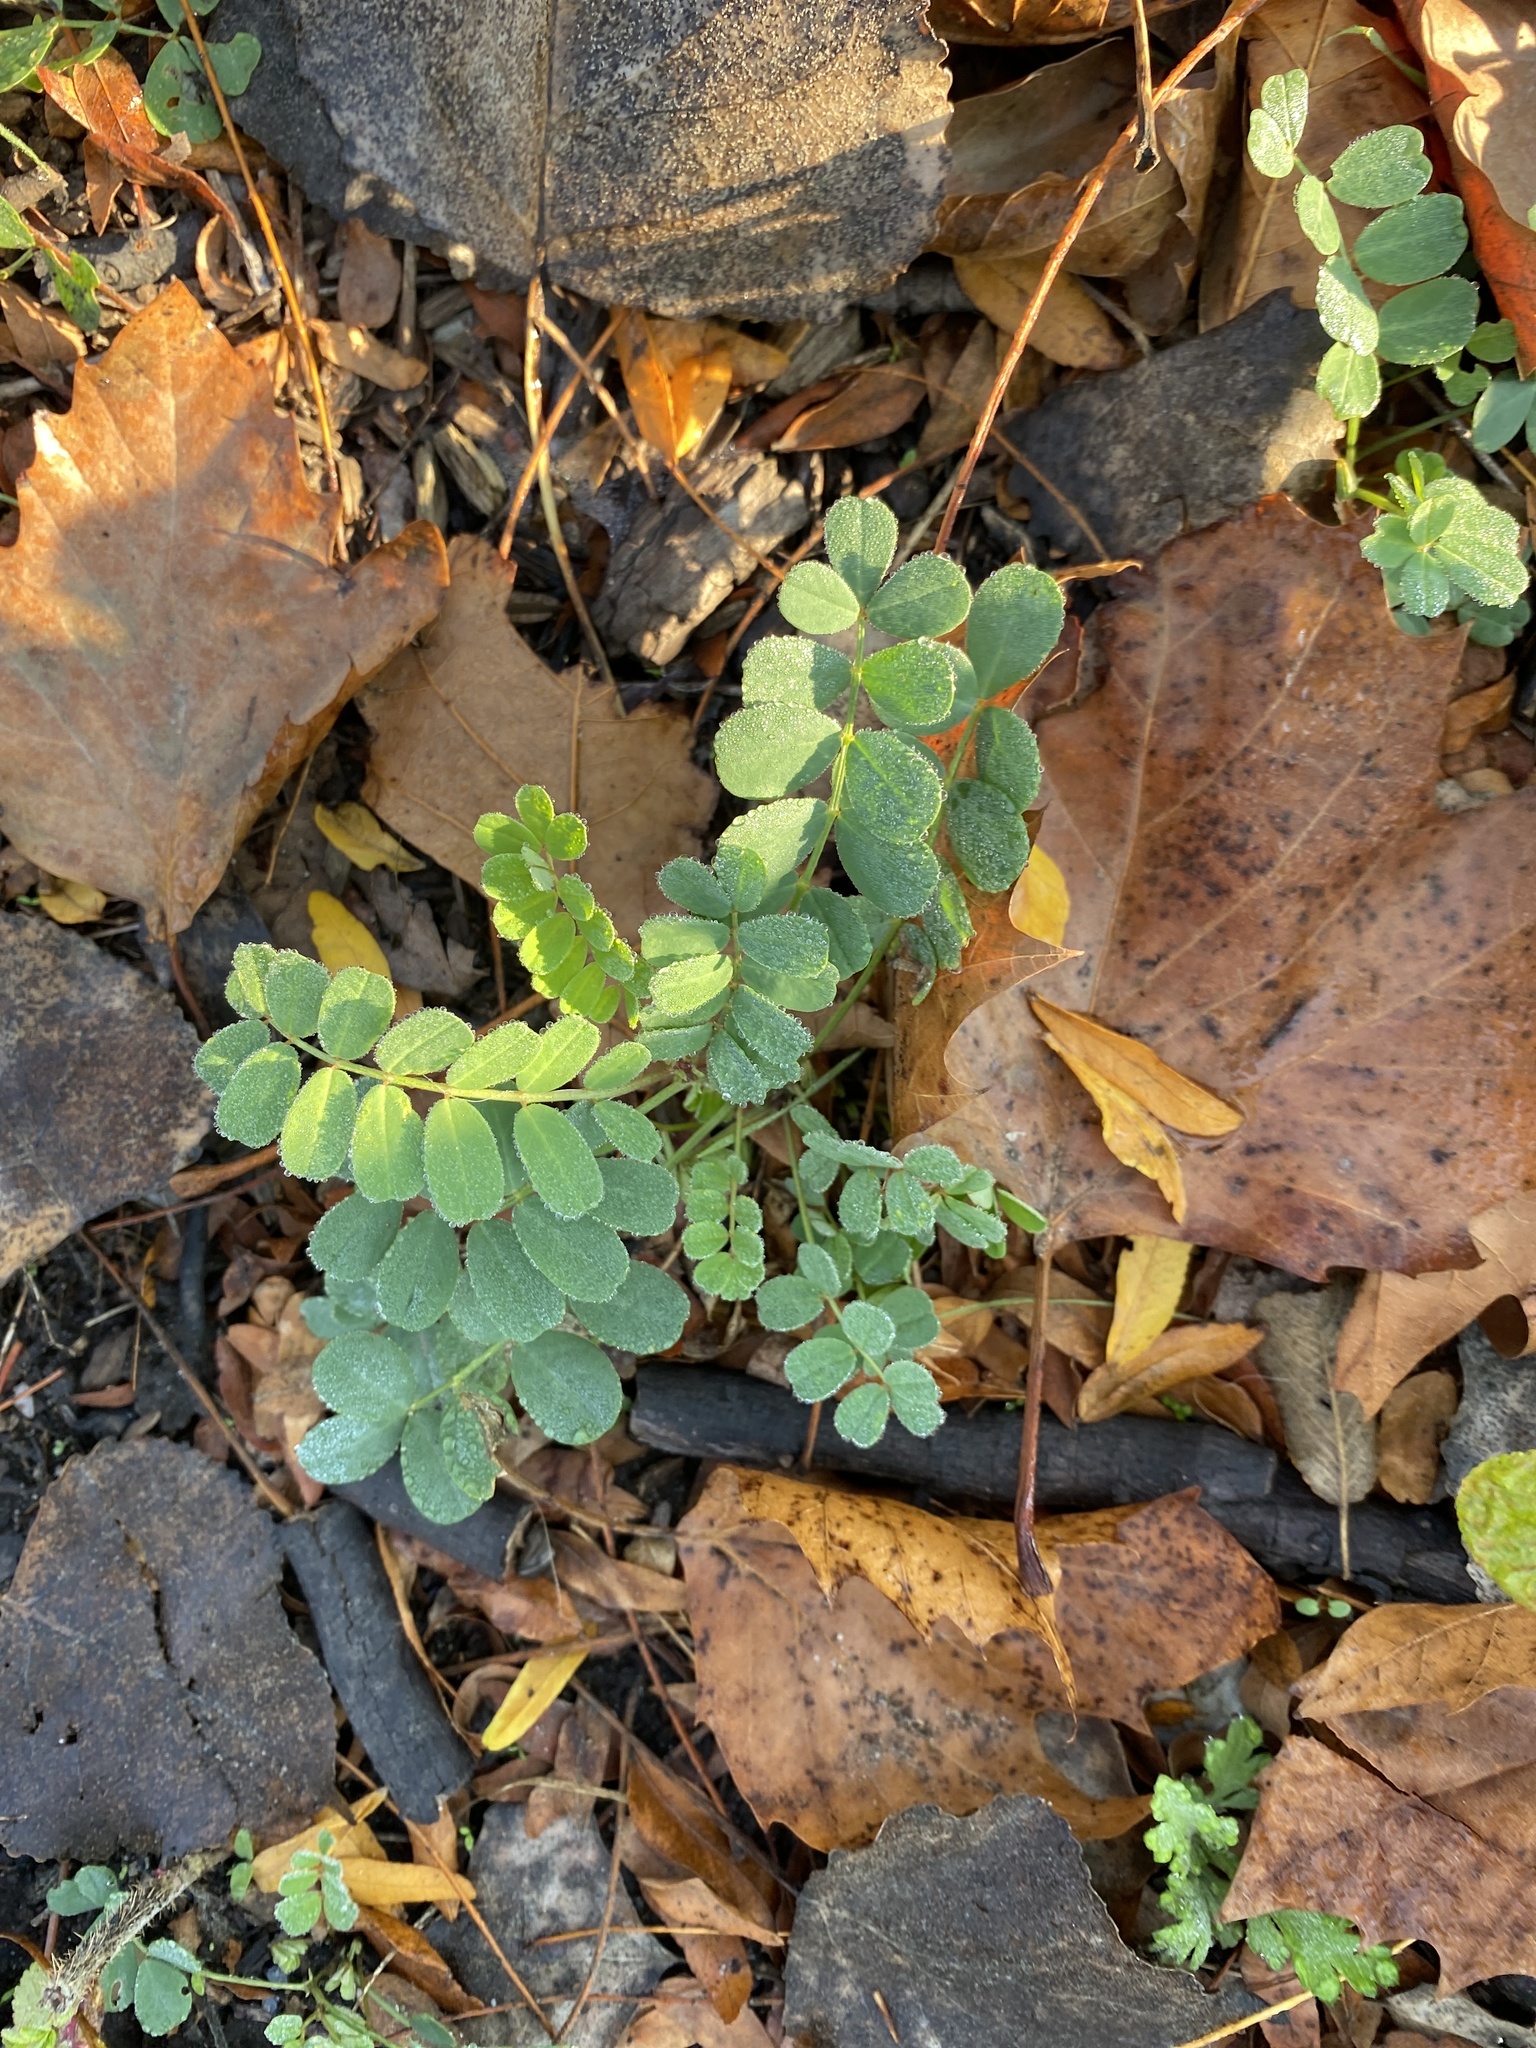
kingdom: Plantae
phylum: Tracheophyta
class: Magnoliopsida
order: Fabales
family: Fabaceae
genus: Coronilla
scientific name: Coronilla varia
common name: Crownvetch
